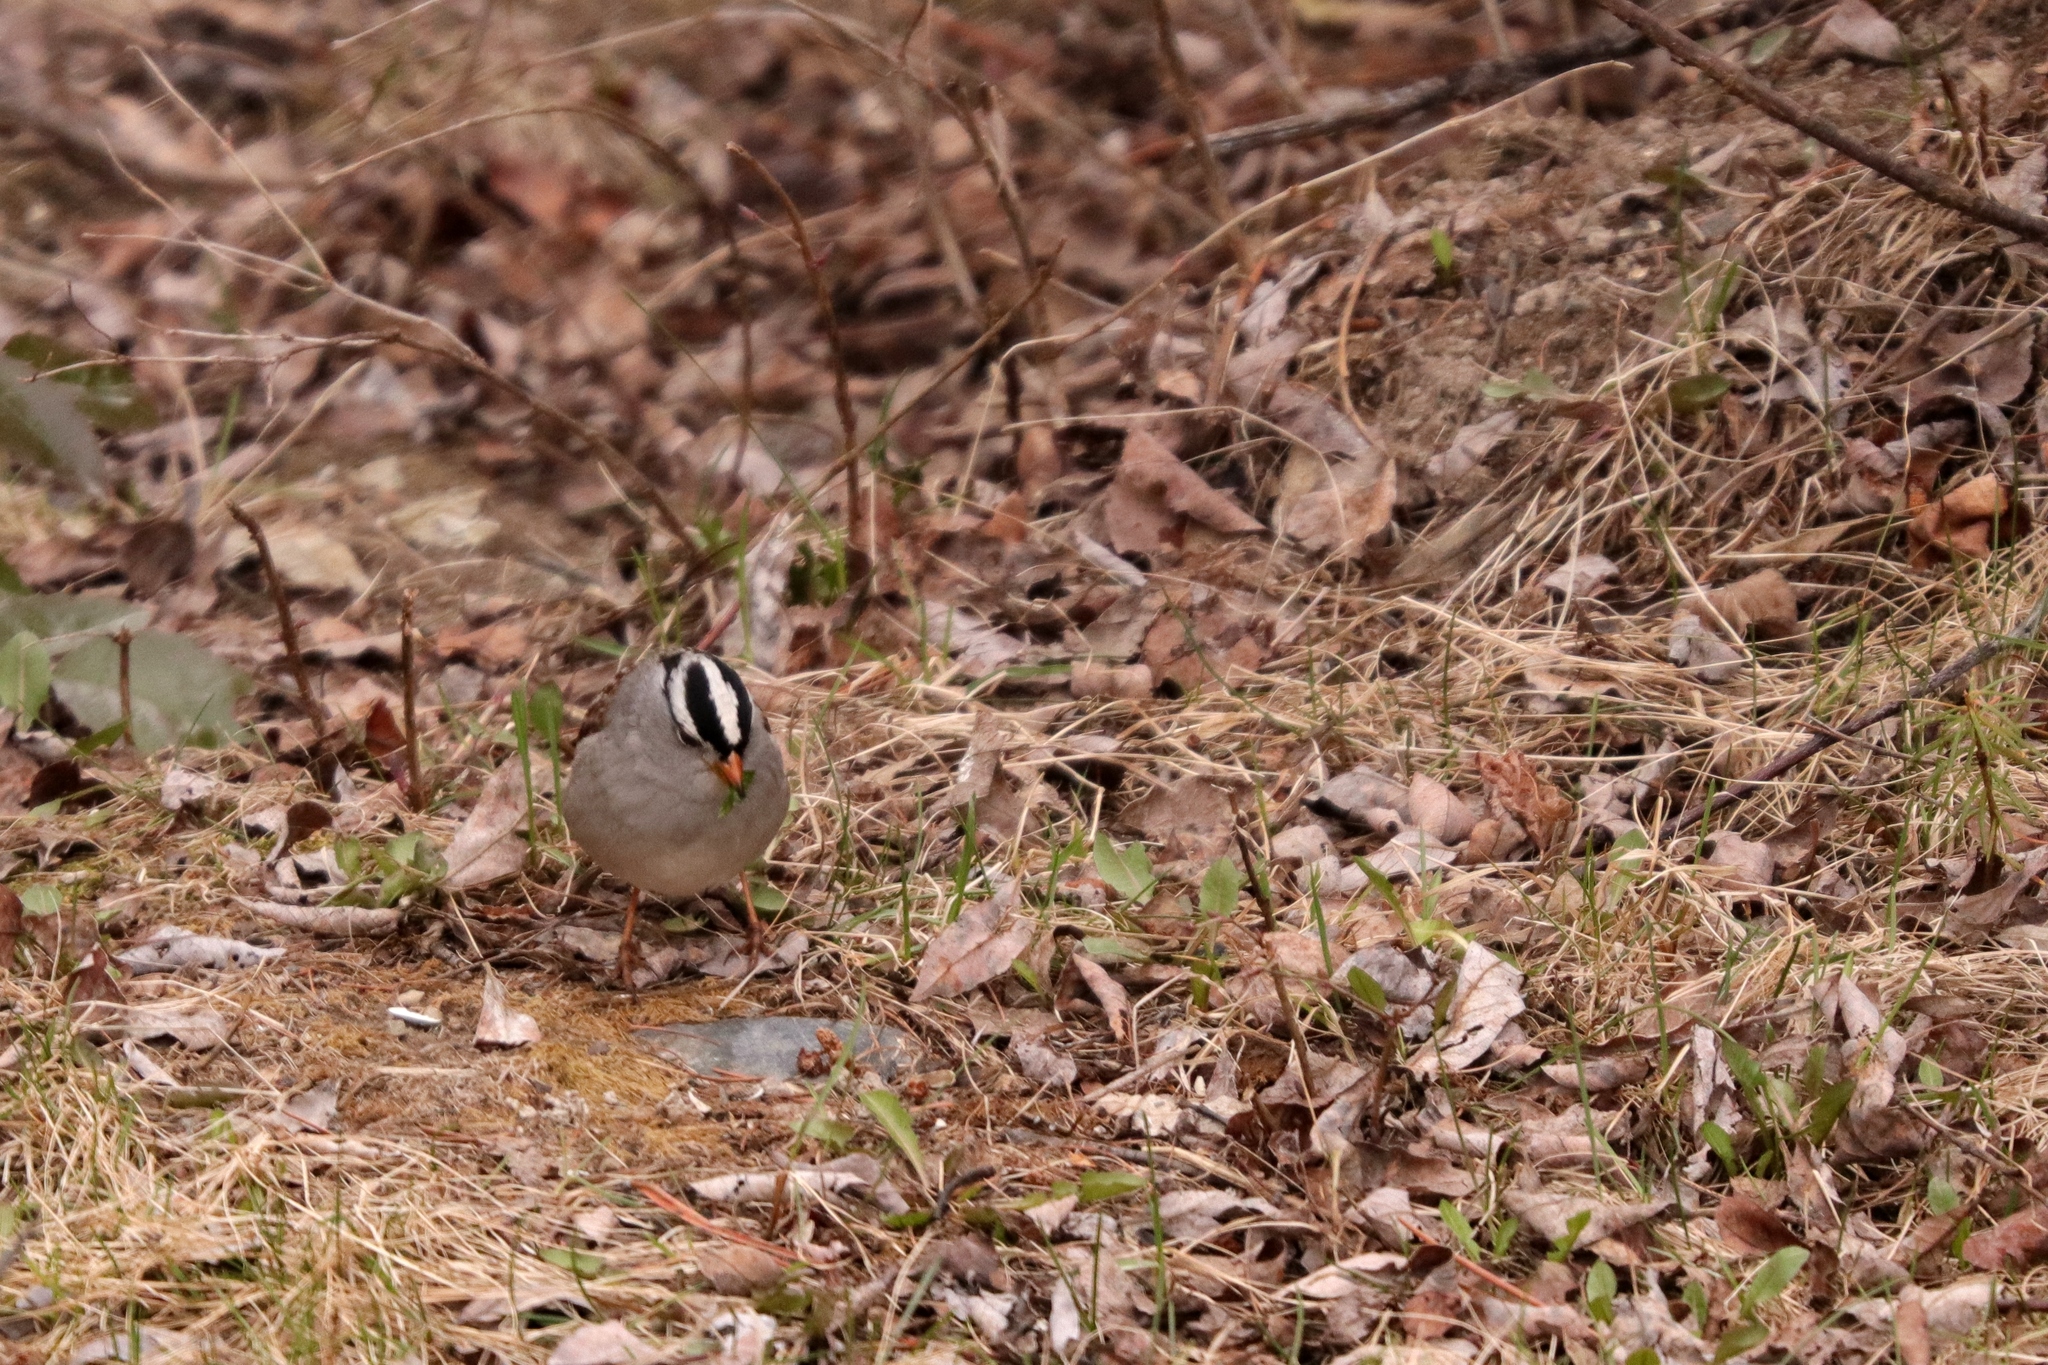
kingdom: Animalia
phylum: Chordata
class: Aves
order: Passeriformes
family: Passerellidae
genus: Zonotrichia
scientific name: Zonotrichia leucophrys
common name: White-crowned sparrow
